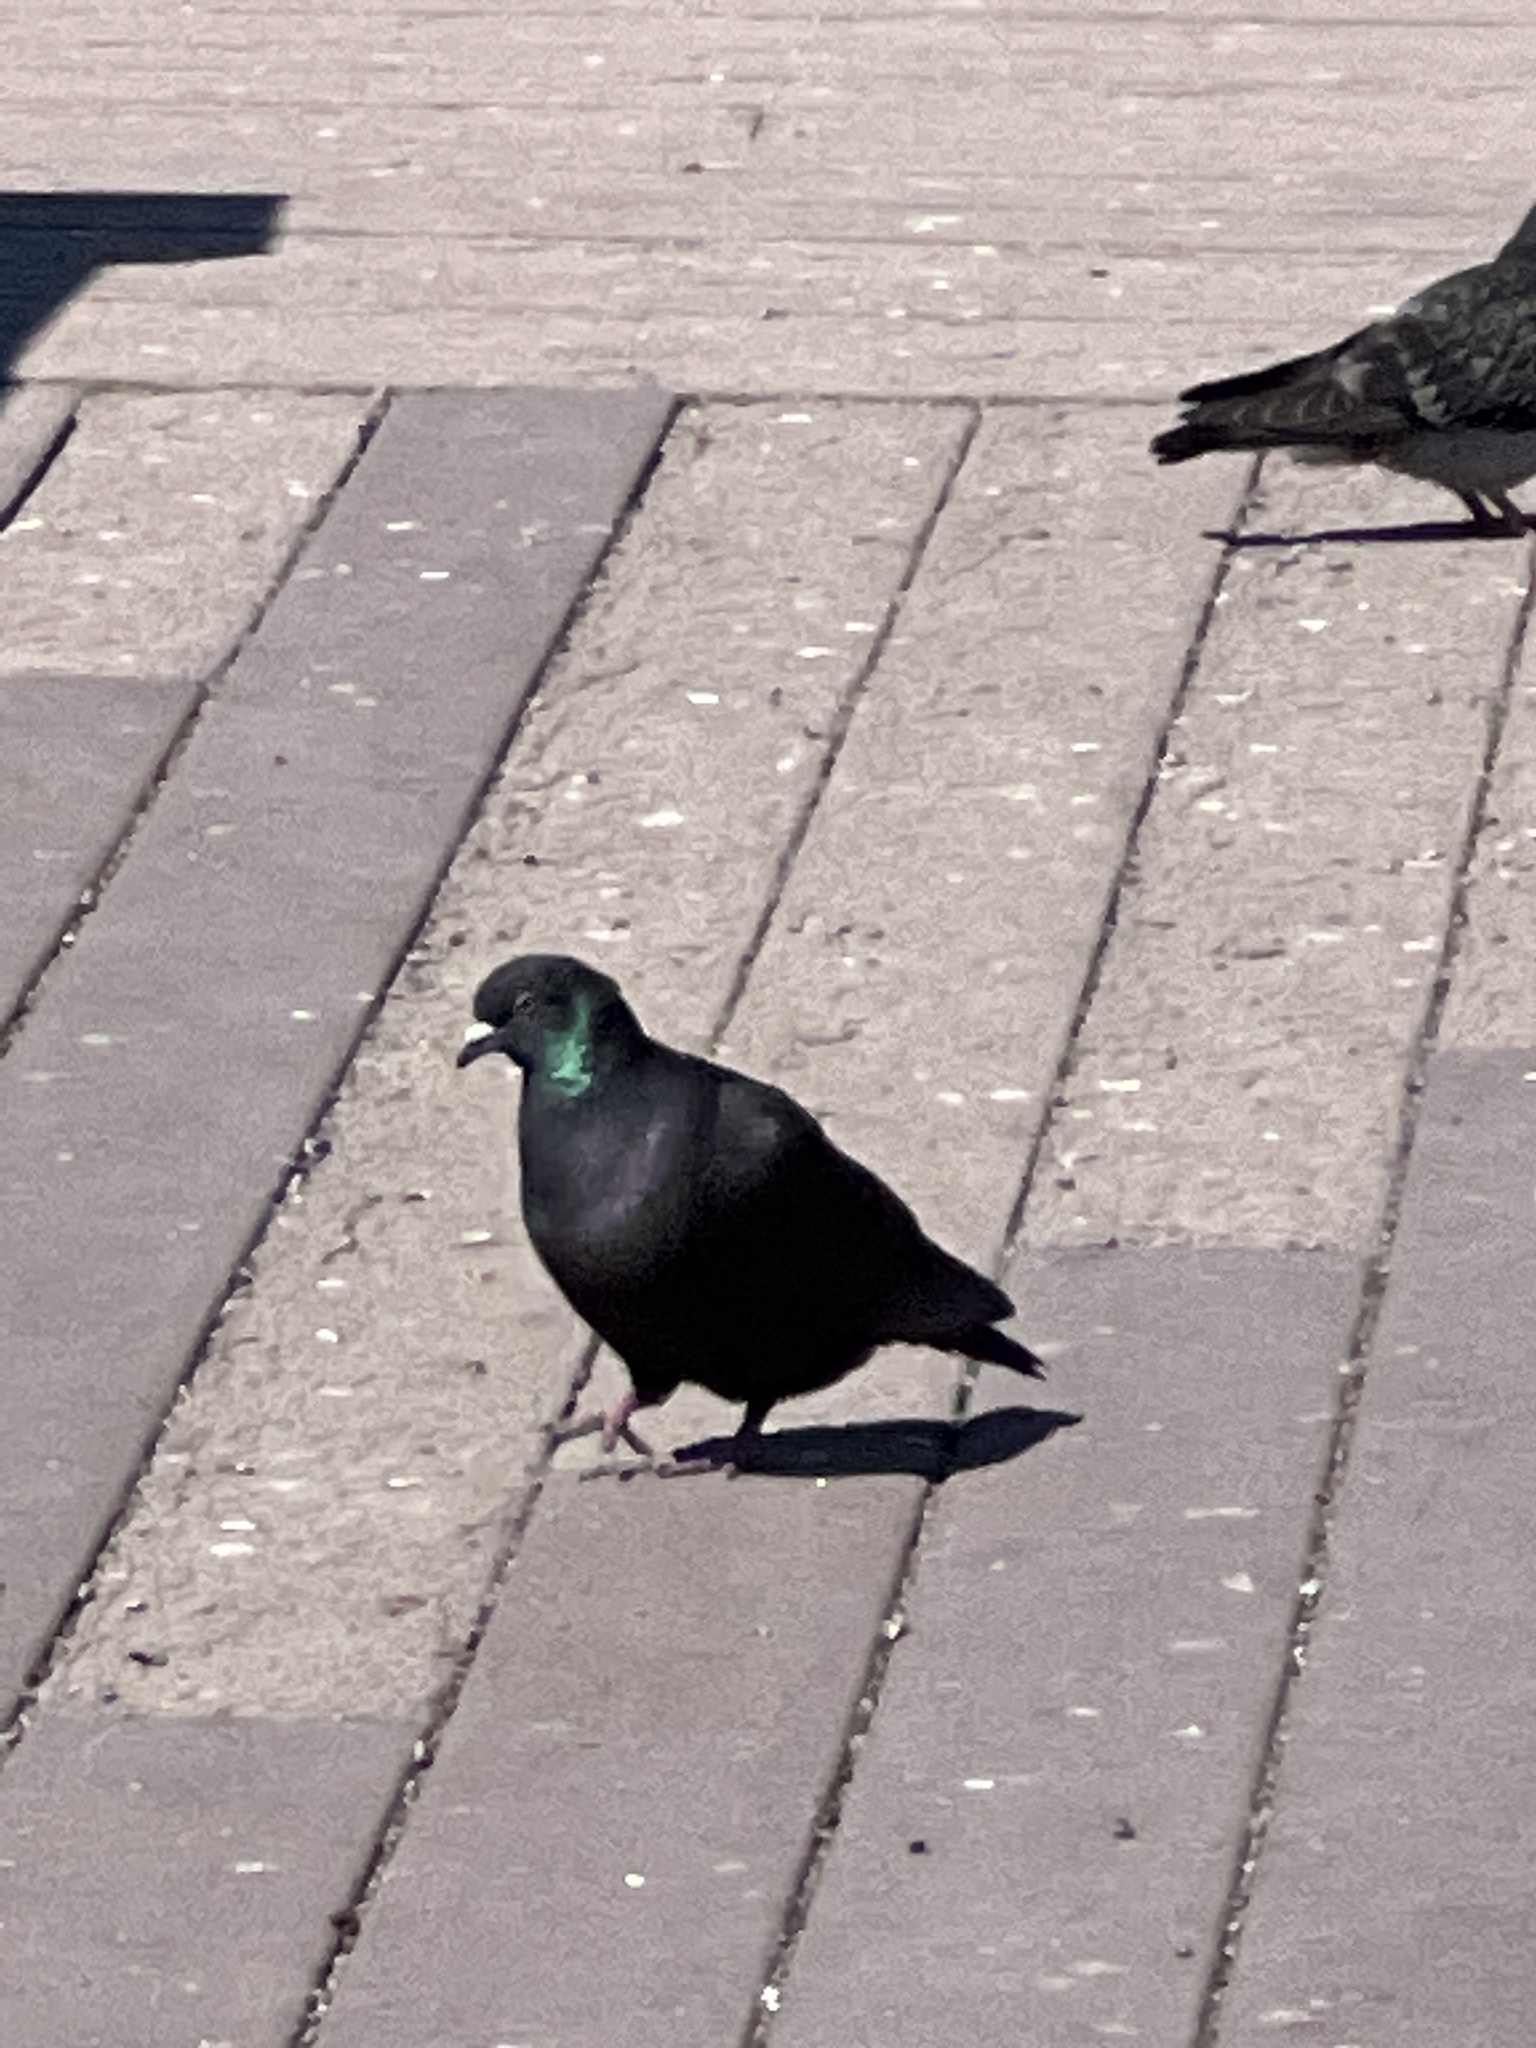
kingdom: Animalia
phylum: Chordata
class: Aves
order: Columbiformes
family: Columbidae
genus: Columba
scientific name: Columba livia
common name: Rock pigeon
